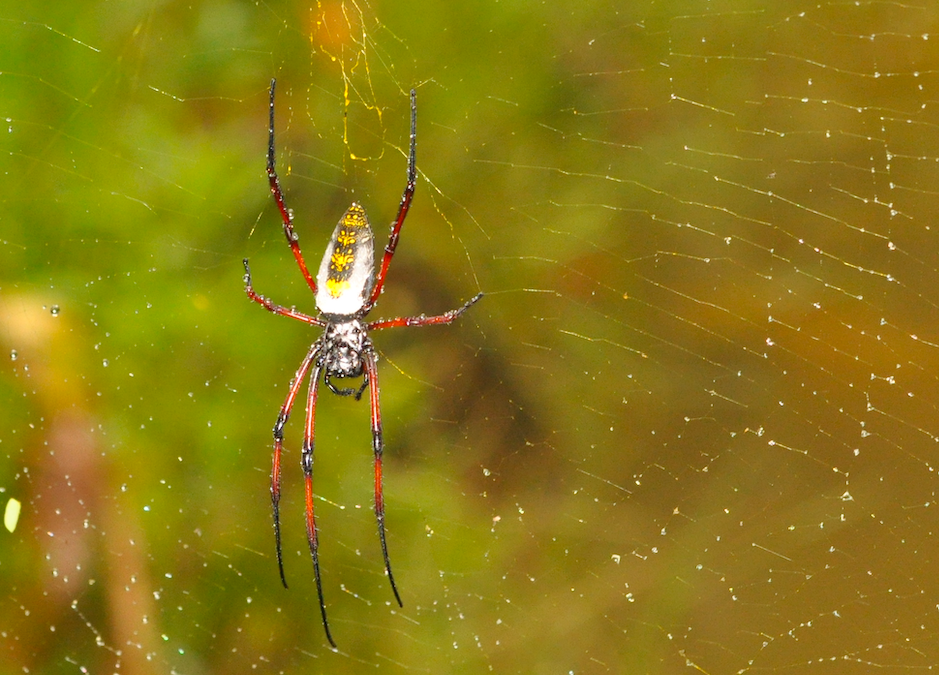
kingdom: Animalia
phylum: Arthropoda
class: Arachnida
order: Araneae
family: Araneidae
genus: Trichonephila
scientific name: Trichonephila inaurata
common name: Red-legged golden orb weaver
